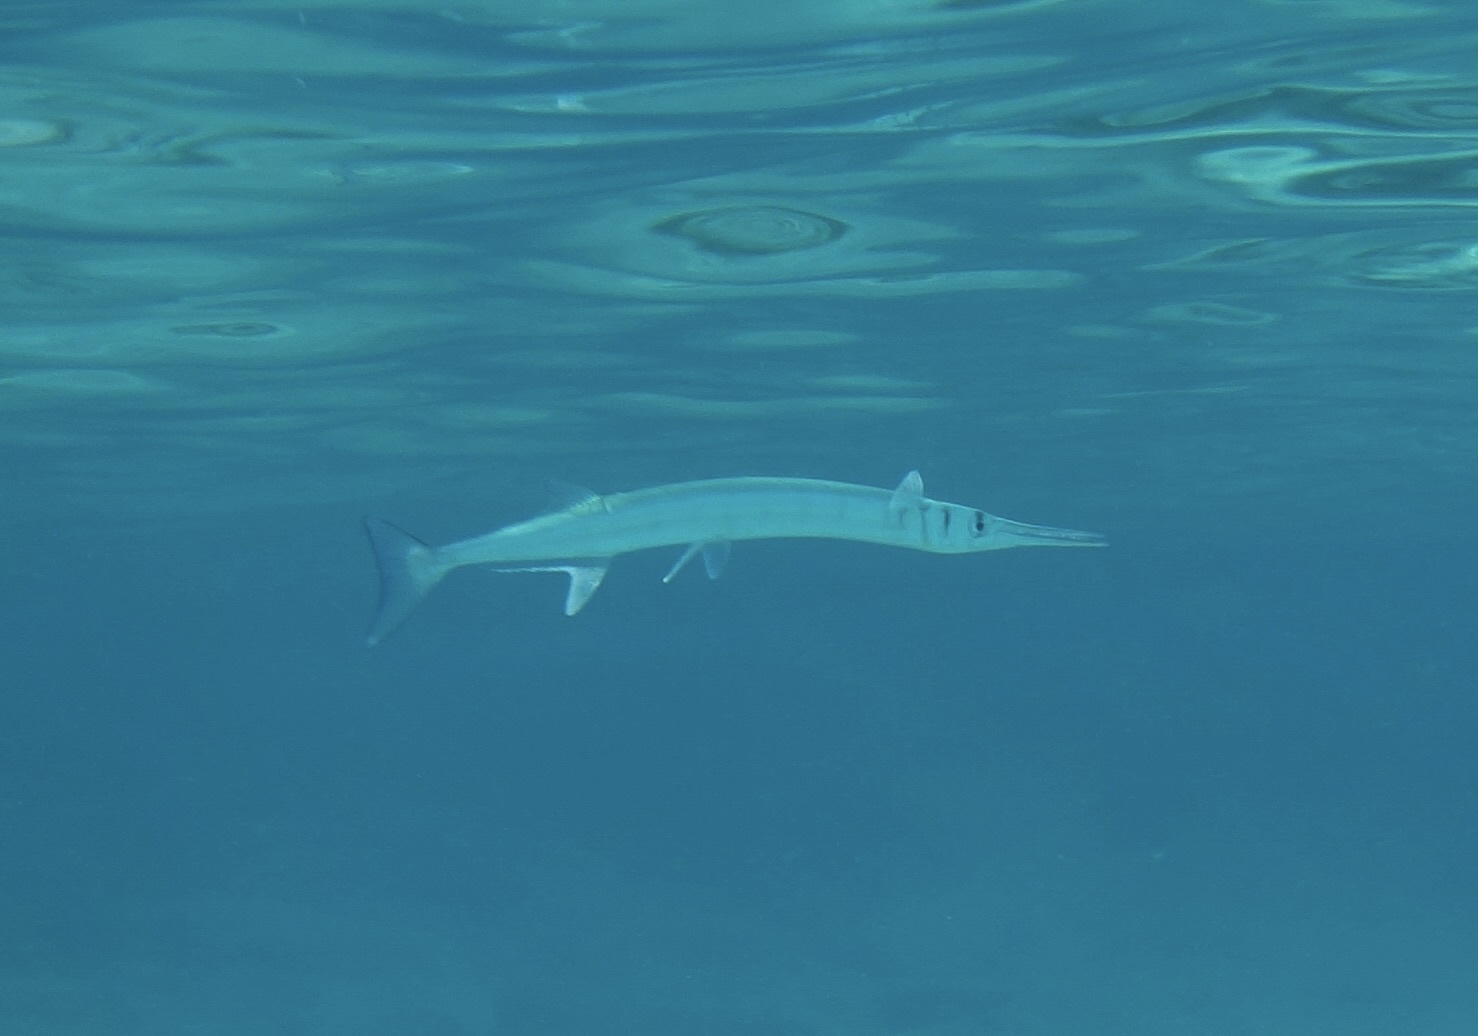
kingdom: Animalia
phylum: Chordata
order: Beloniformes
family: Belonidae
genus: Tylosurus
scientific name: Tylosurus crocodilus
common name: Houndfish
